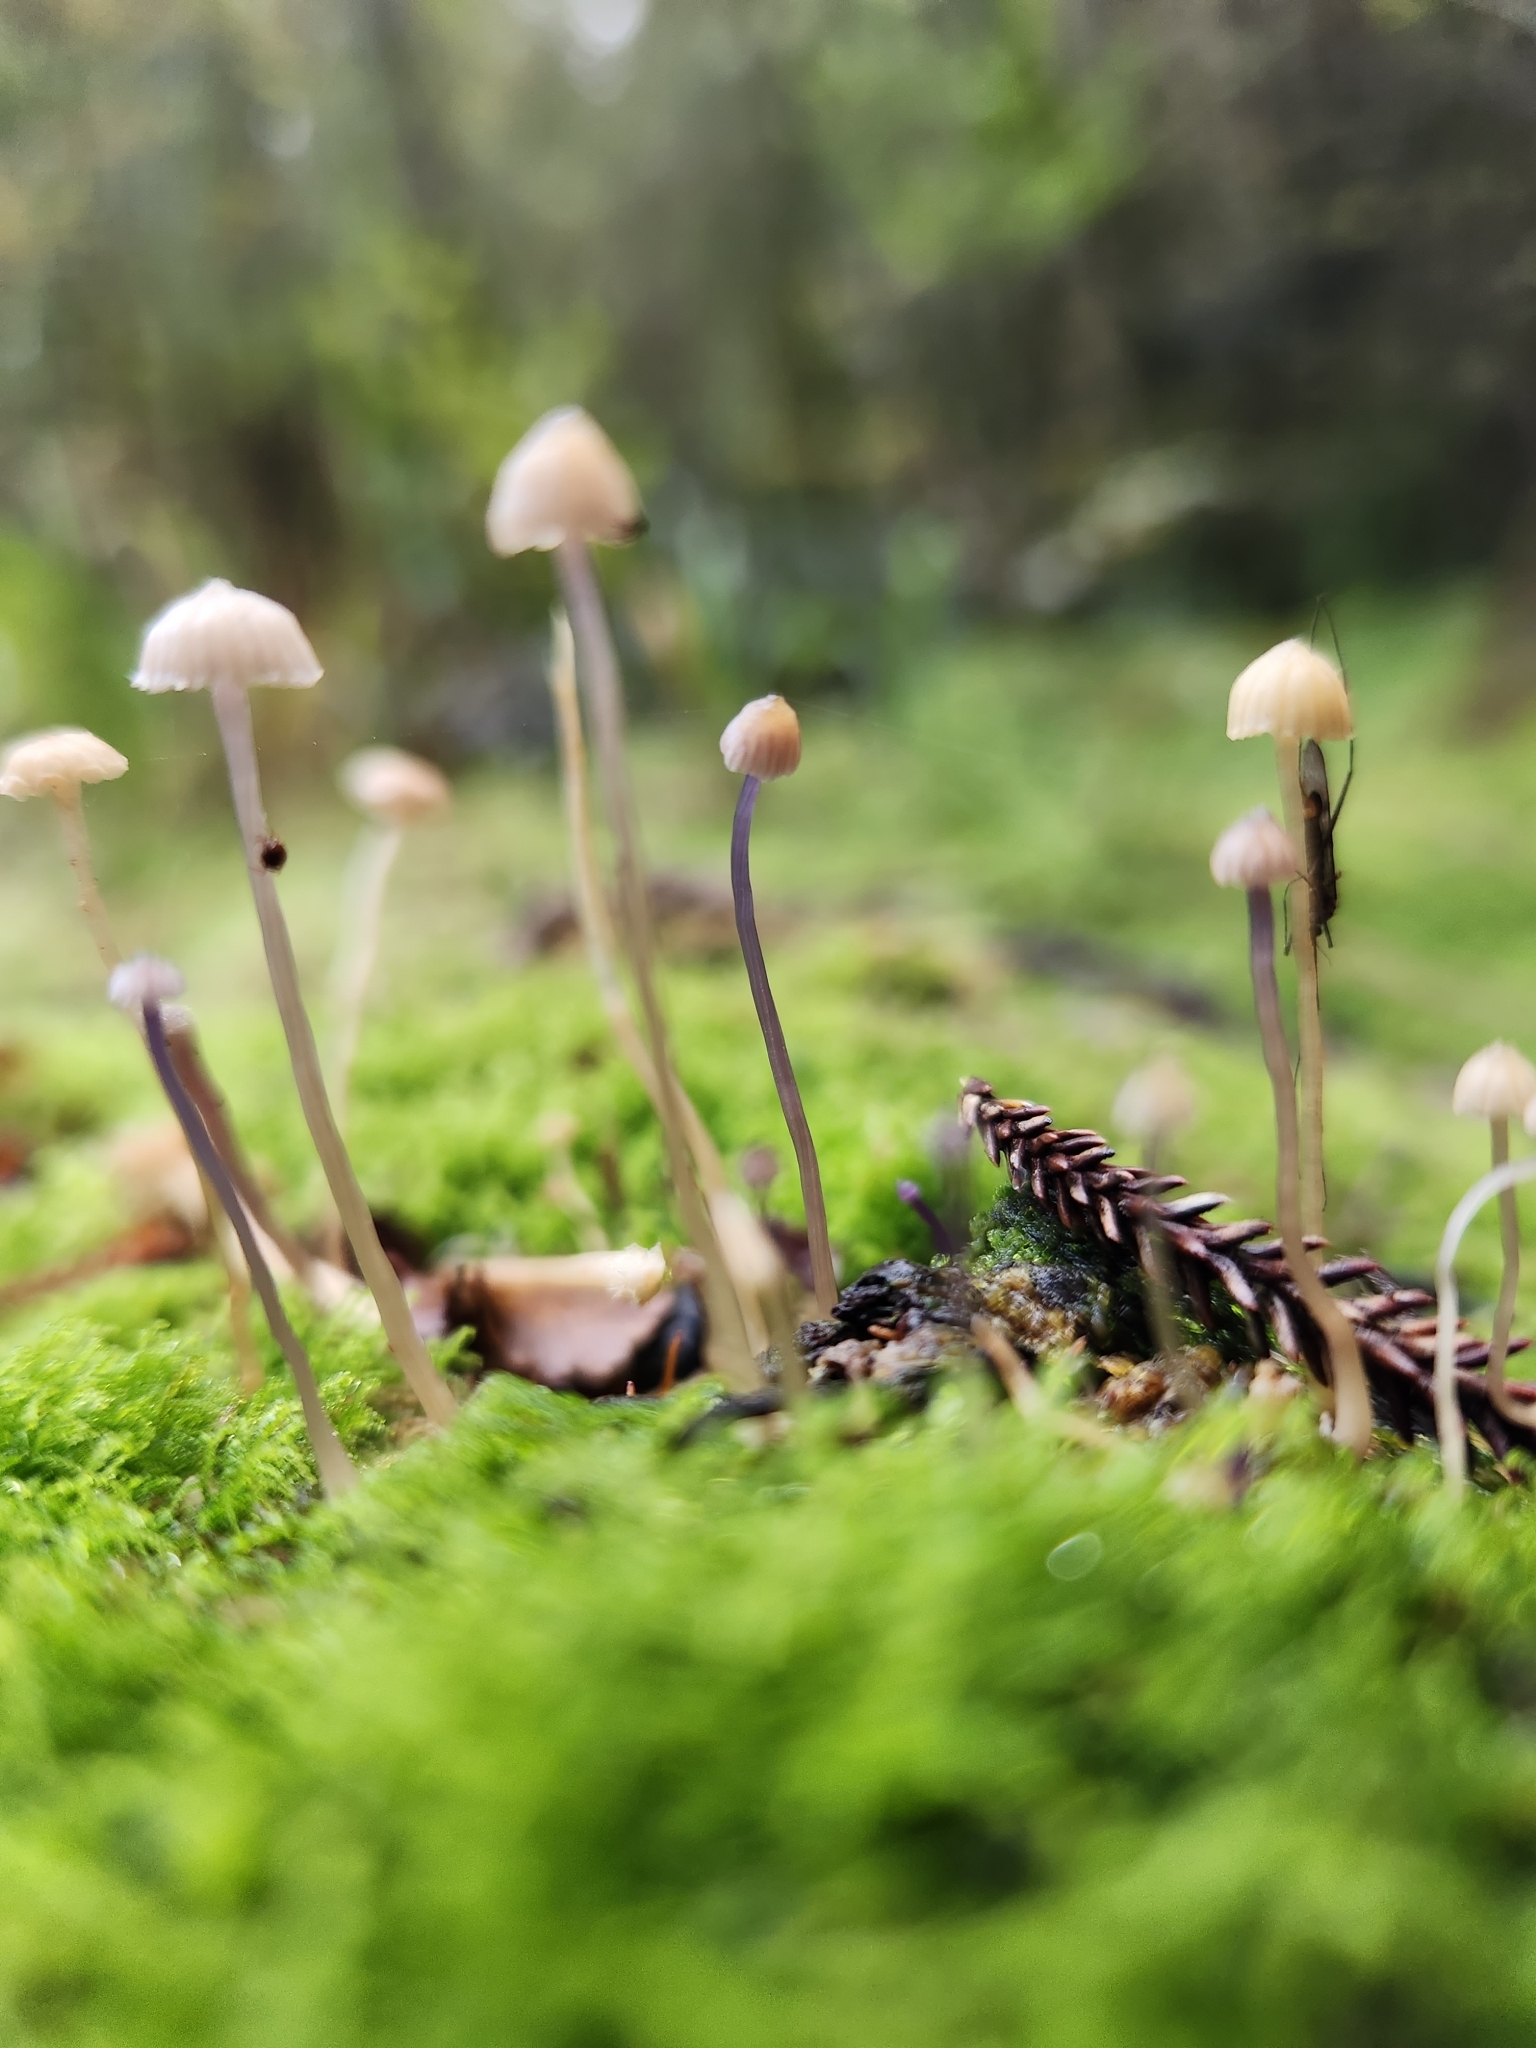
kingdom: Fungi
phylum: Basidiomycota
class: Agaricomycetes
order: Agaricales
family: Hydnangiaceae
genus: Laccaria
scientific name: Laccaria masoniae
